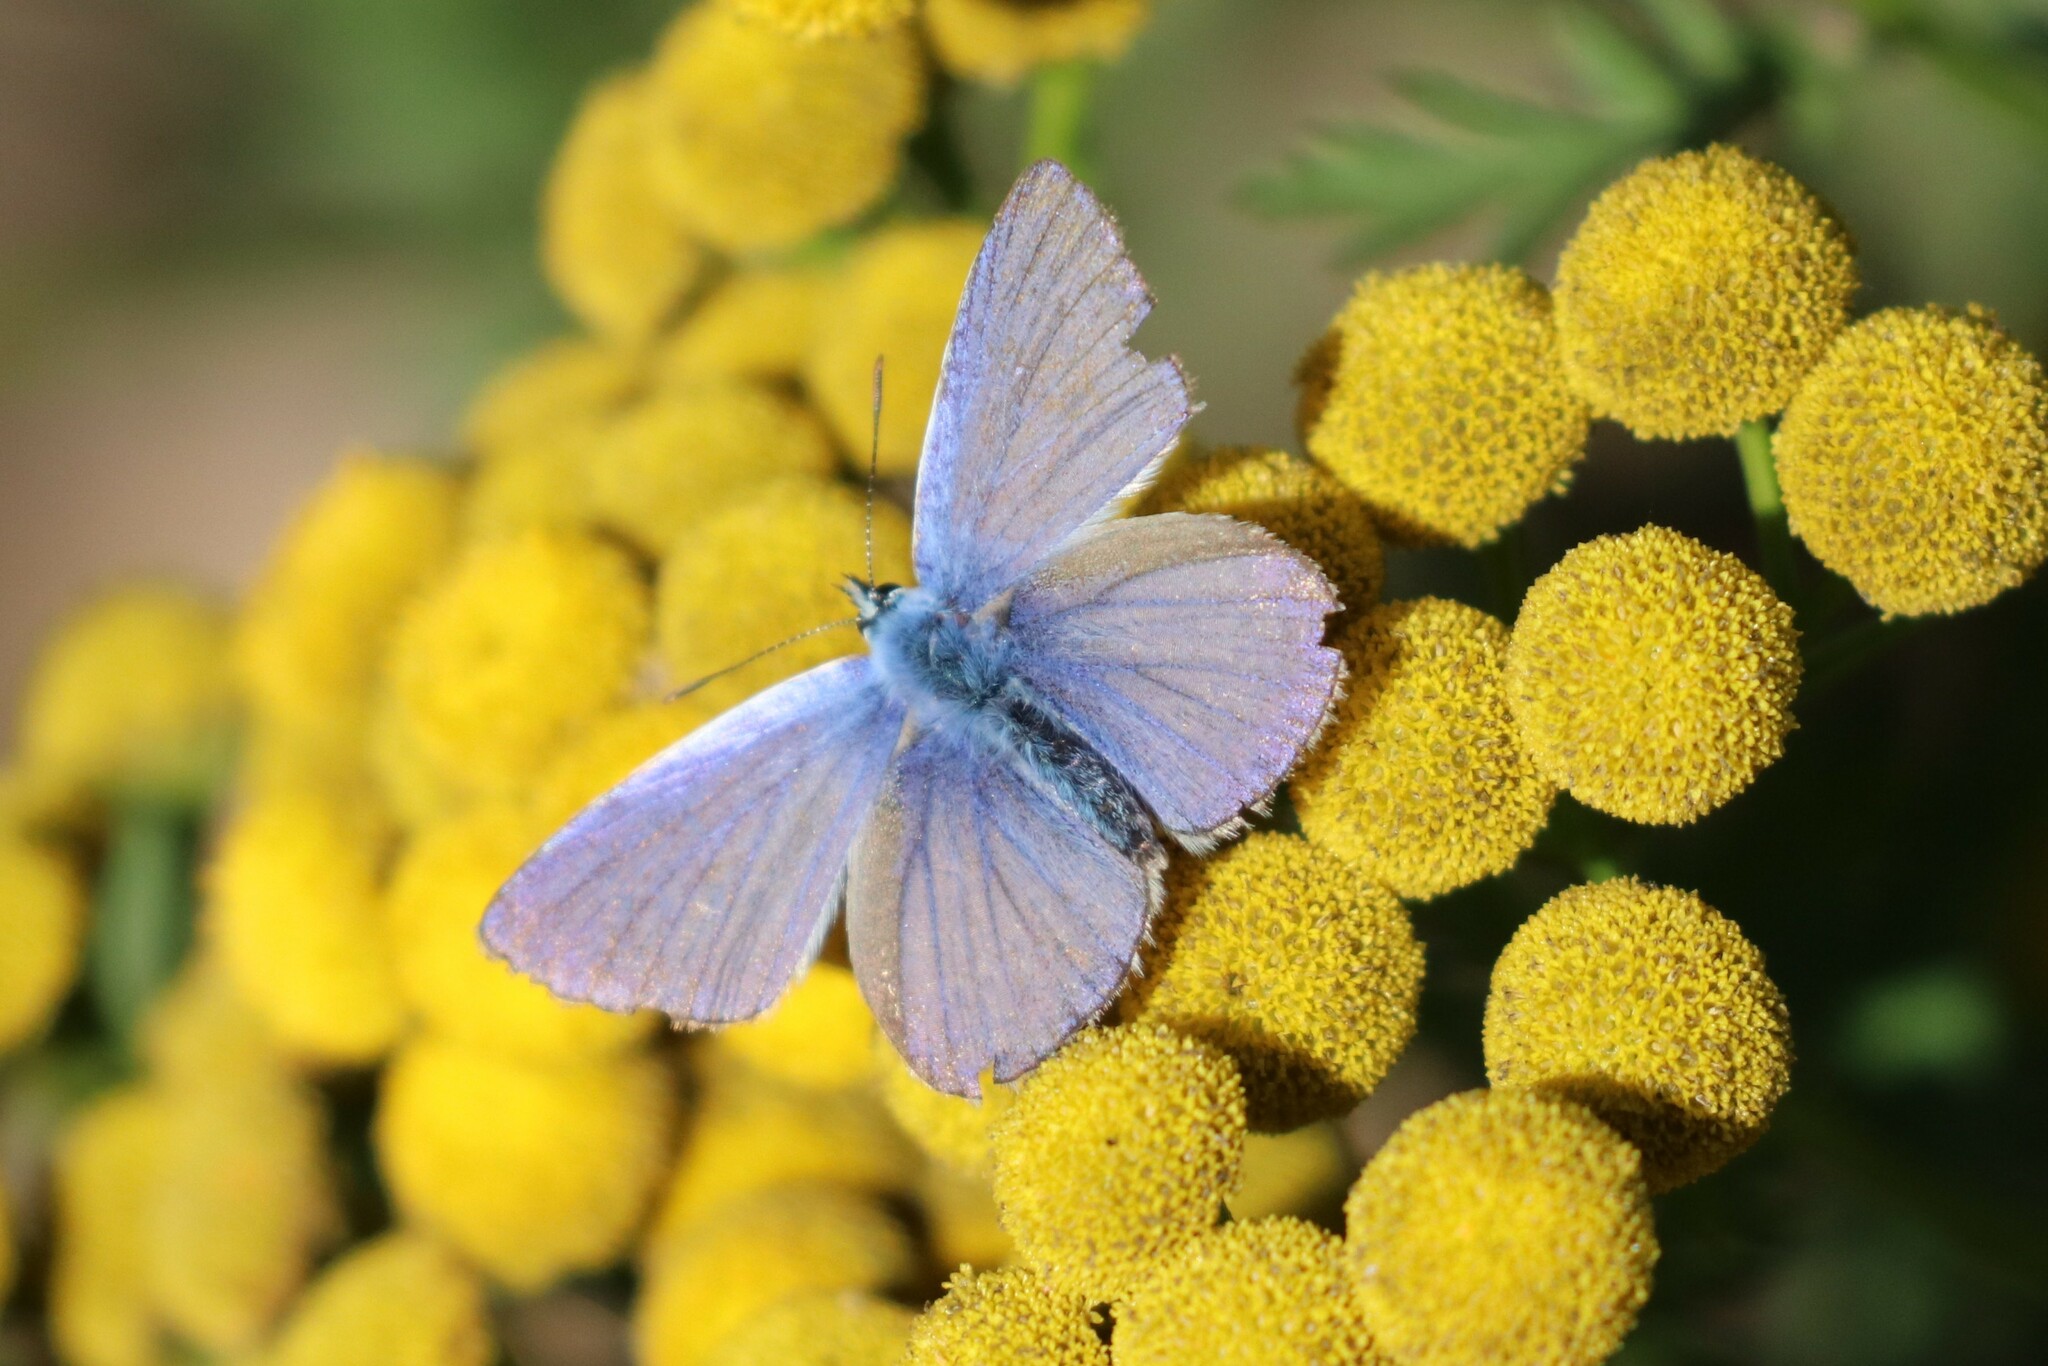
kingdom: Animalia
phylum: Arthropoda
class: Insecta
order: Lepidoptera
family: Lycaenidae
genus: Polyommatus
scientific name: Polyommatus icarus
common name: Common blue
